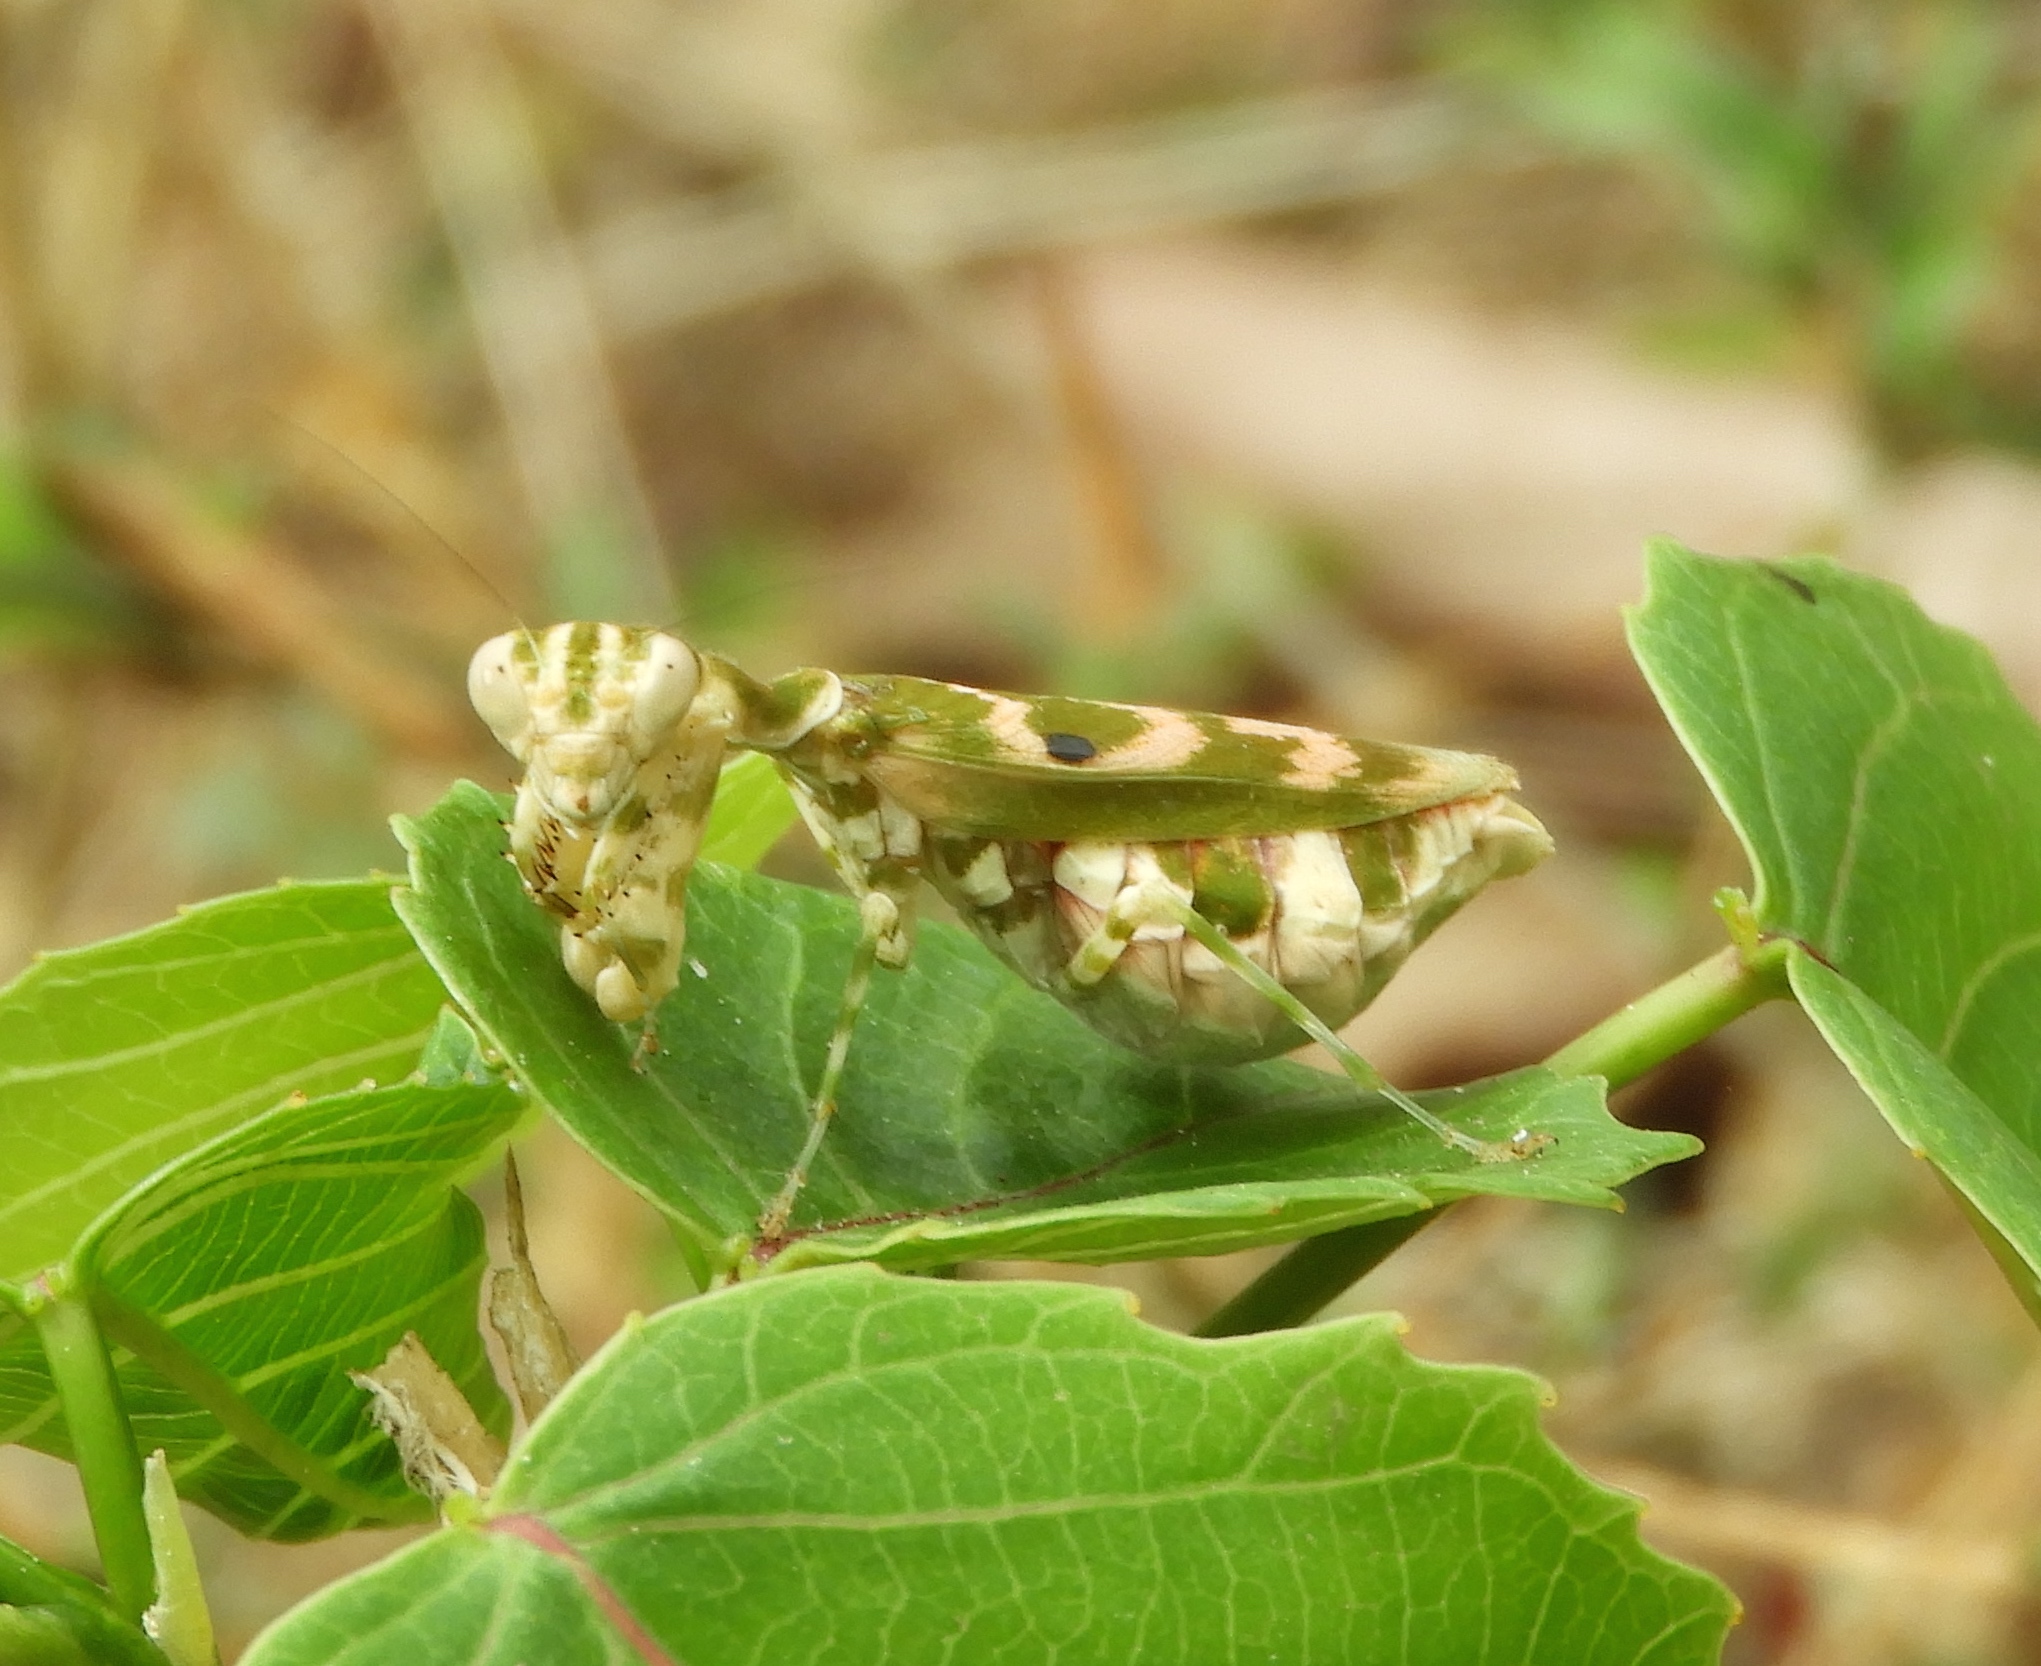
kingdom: Animalia
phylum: Arthropoda
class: Insecta
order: Mantodea
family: Acanthopidae
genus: Acontista
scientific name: Acontista cordillerae
